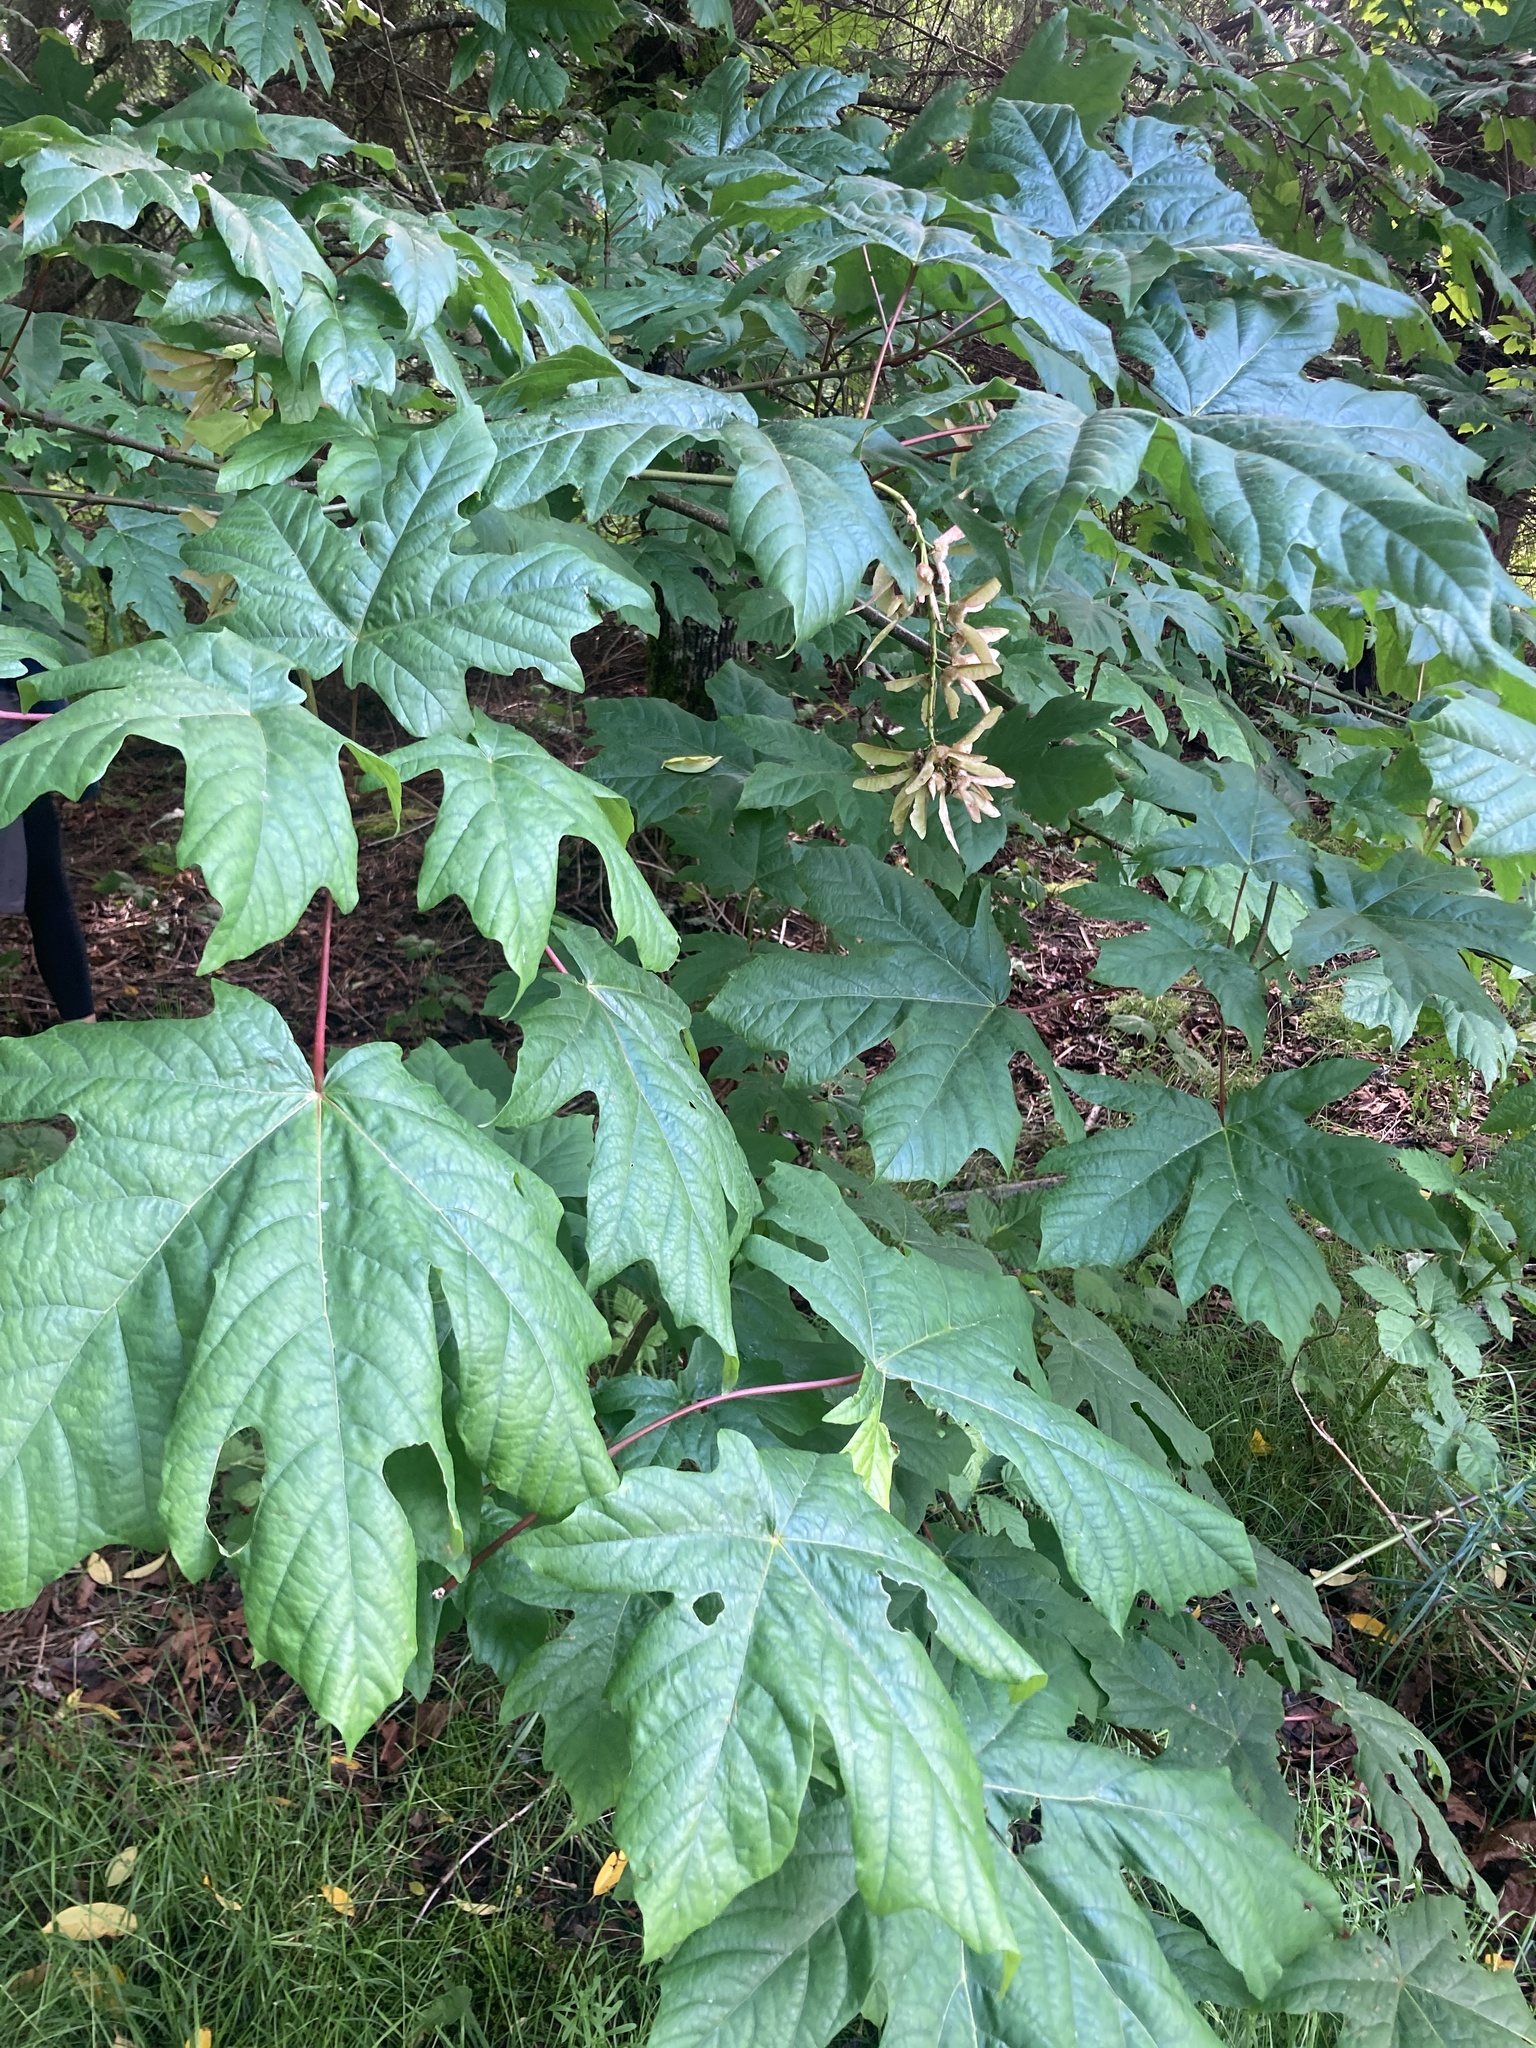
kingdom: Plantae
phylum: Tracheophyta
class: Magnoliopsida
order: Sapindales
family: Sapindaceae
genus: Acer
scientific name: Acer macrophyllum
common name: Oregon maple
